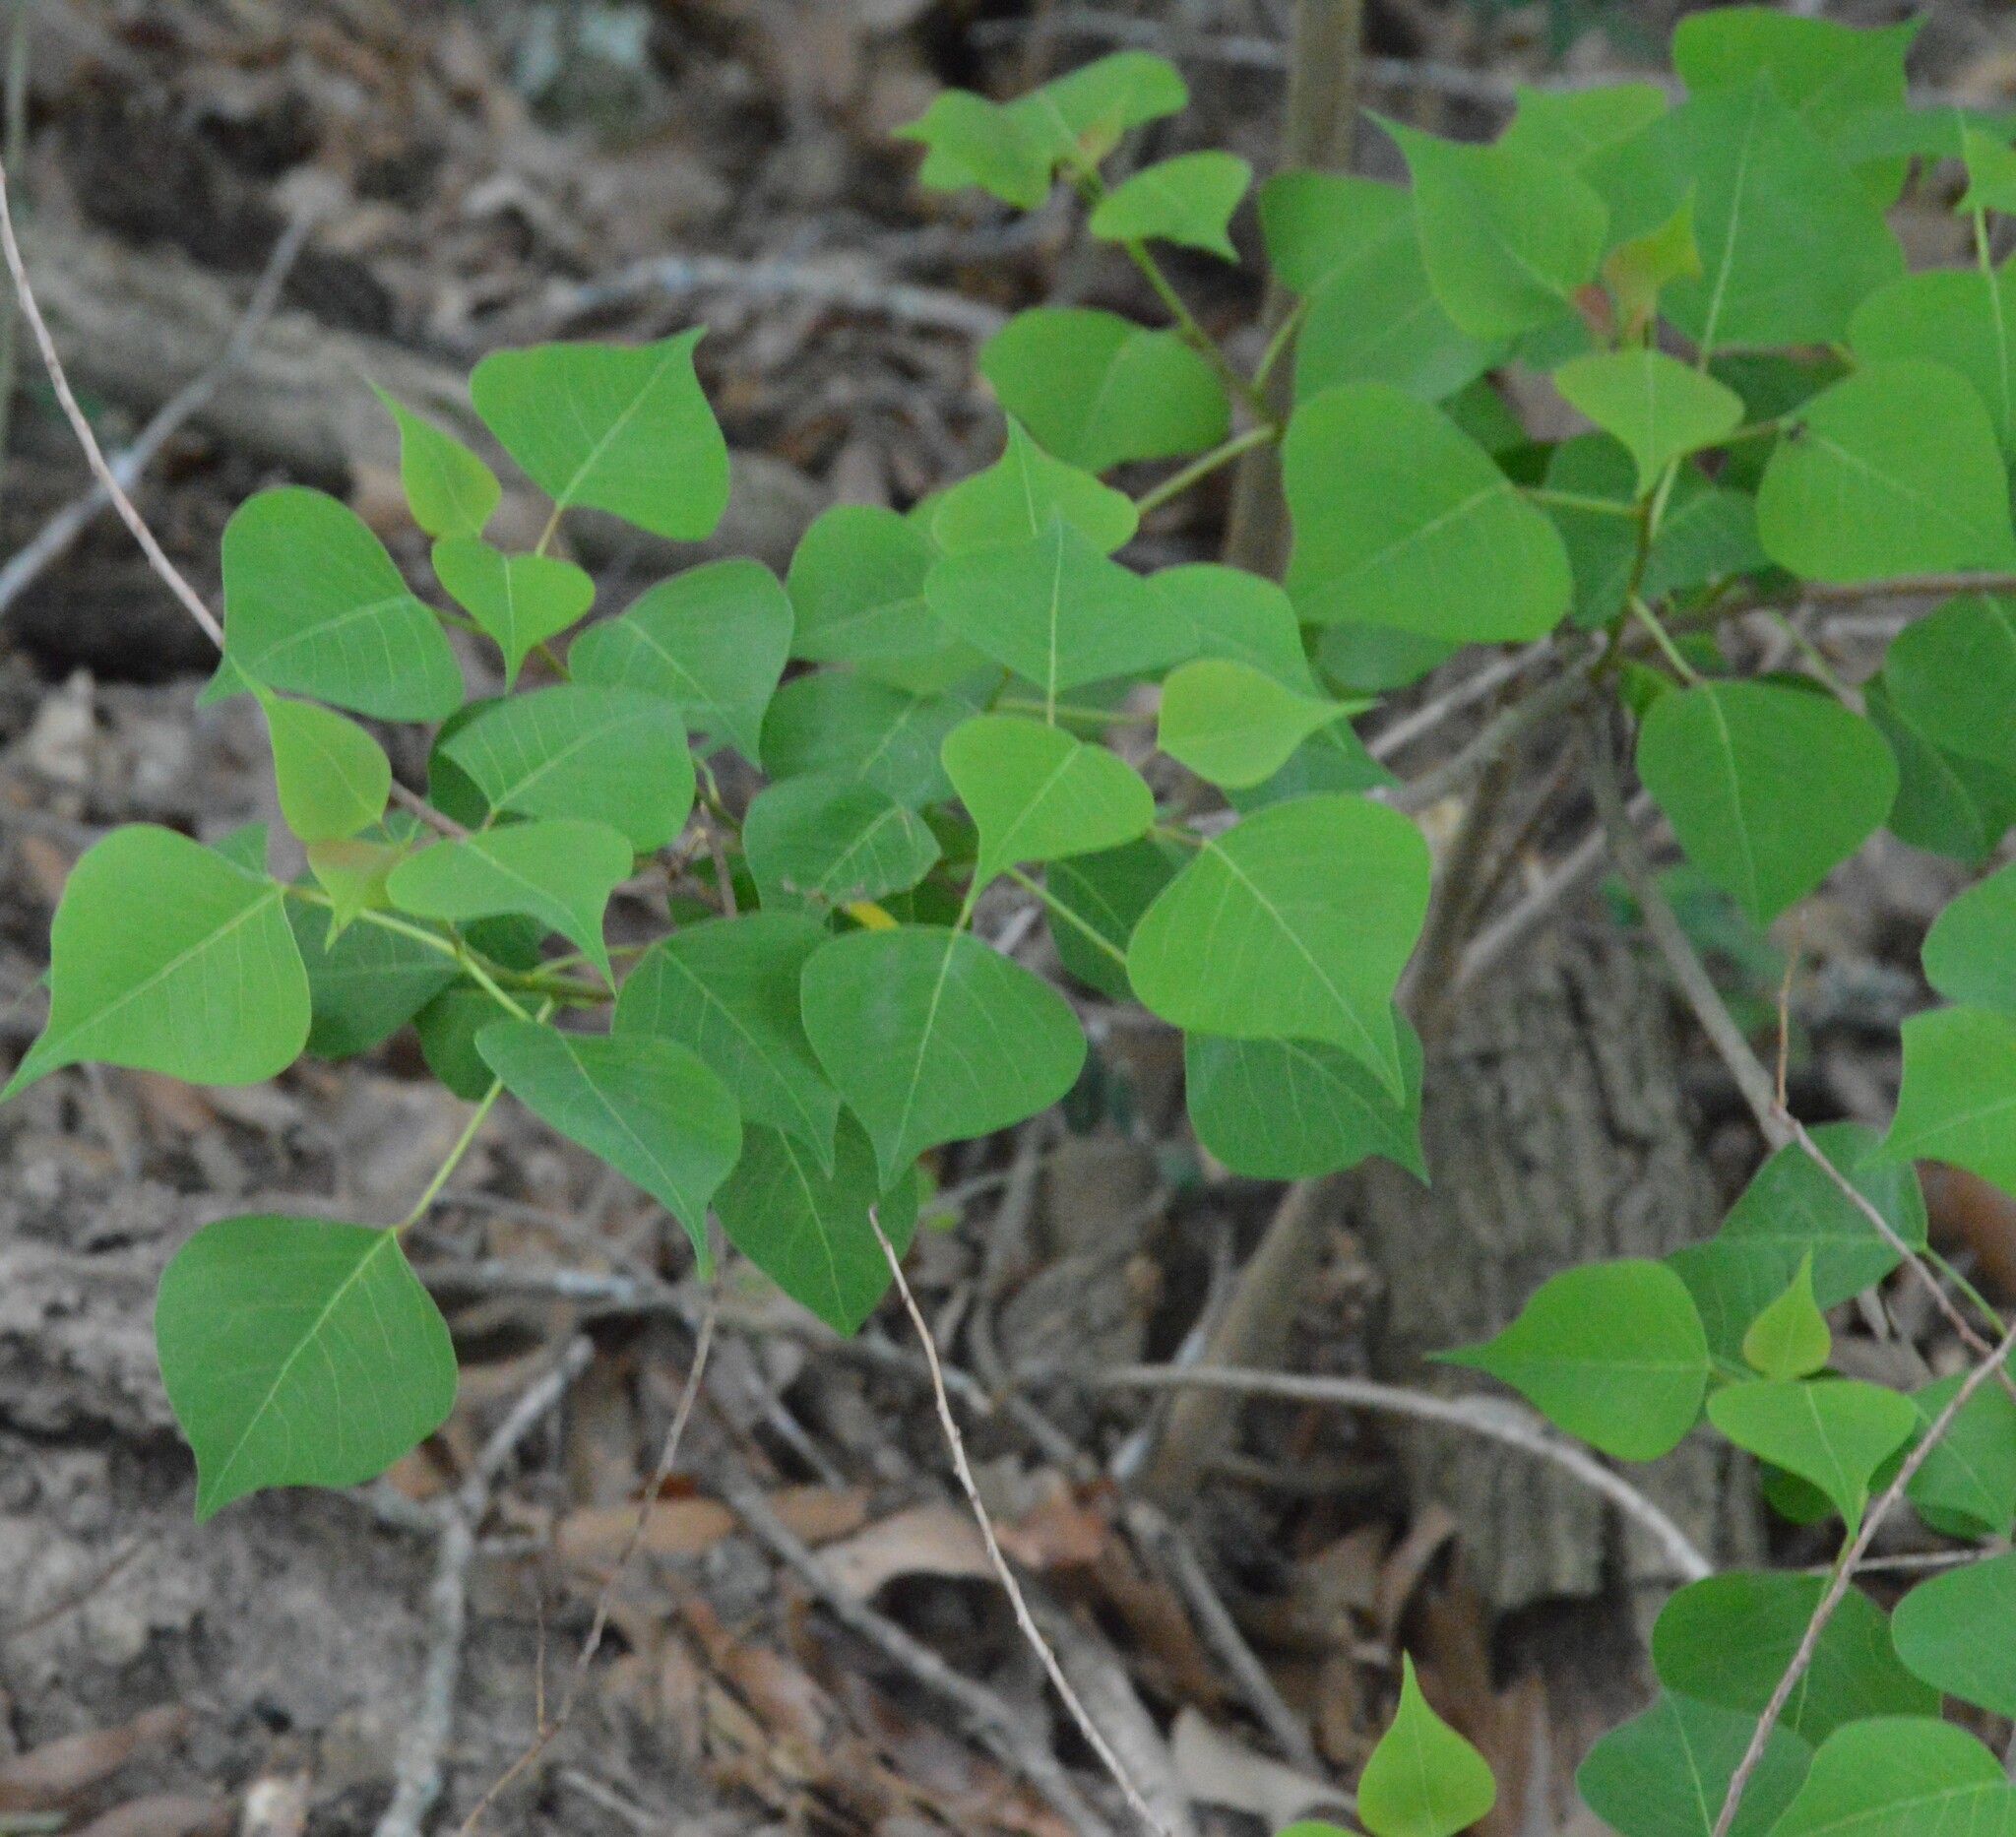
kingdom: Plantae
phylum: Tracheophyta
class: Magnoliopsida
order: Malpighiales
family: Euphorbiaceae
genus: Triadica
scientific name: Triadica sebifera
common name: Chinese tallow
